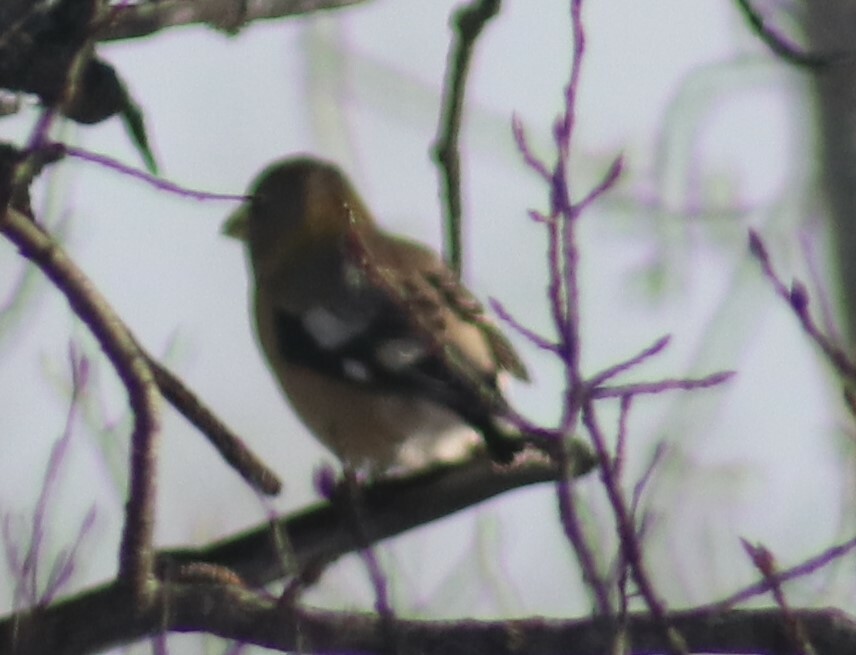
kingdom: Animalia
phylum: Chordata
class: Aves
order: Passeriformes
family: Fringillidae
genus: Hesperiphona
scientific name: Hesperiphona vespertina
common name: Evening grosbeak
